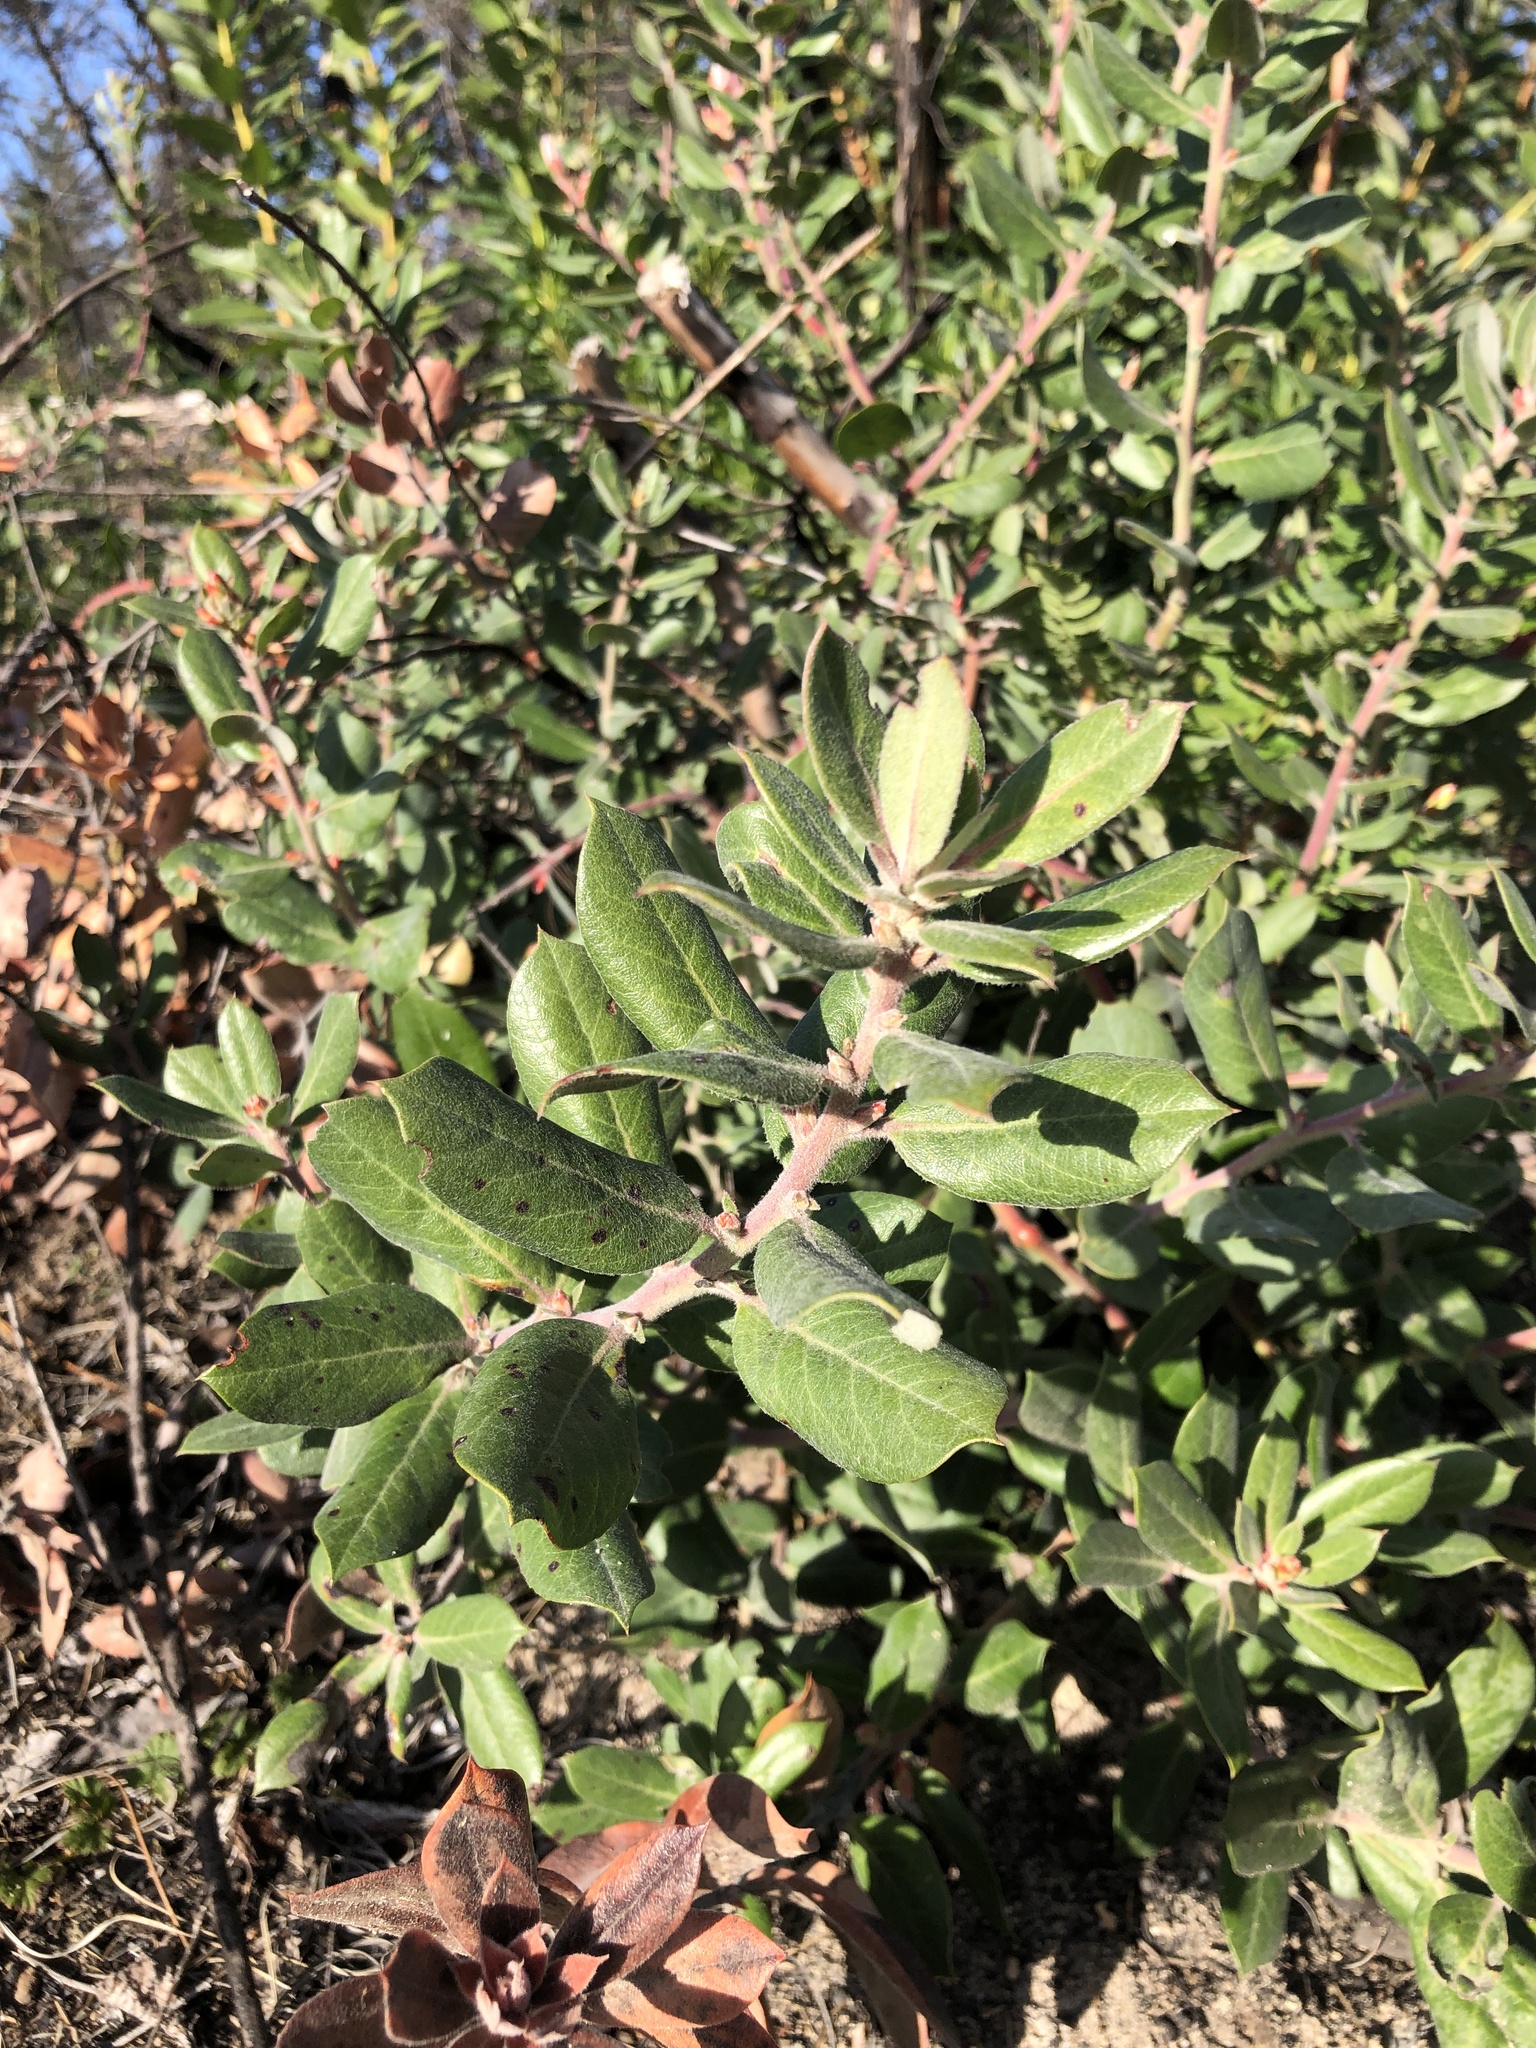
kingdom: Plantae
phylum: Tracheophyta
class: Magnoliopsida
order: Ericales
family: Ericaceae
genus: Arctostaphylos
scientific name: Arctostaphylos crustacea
